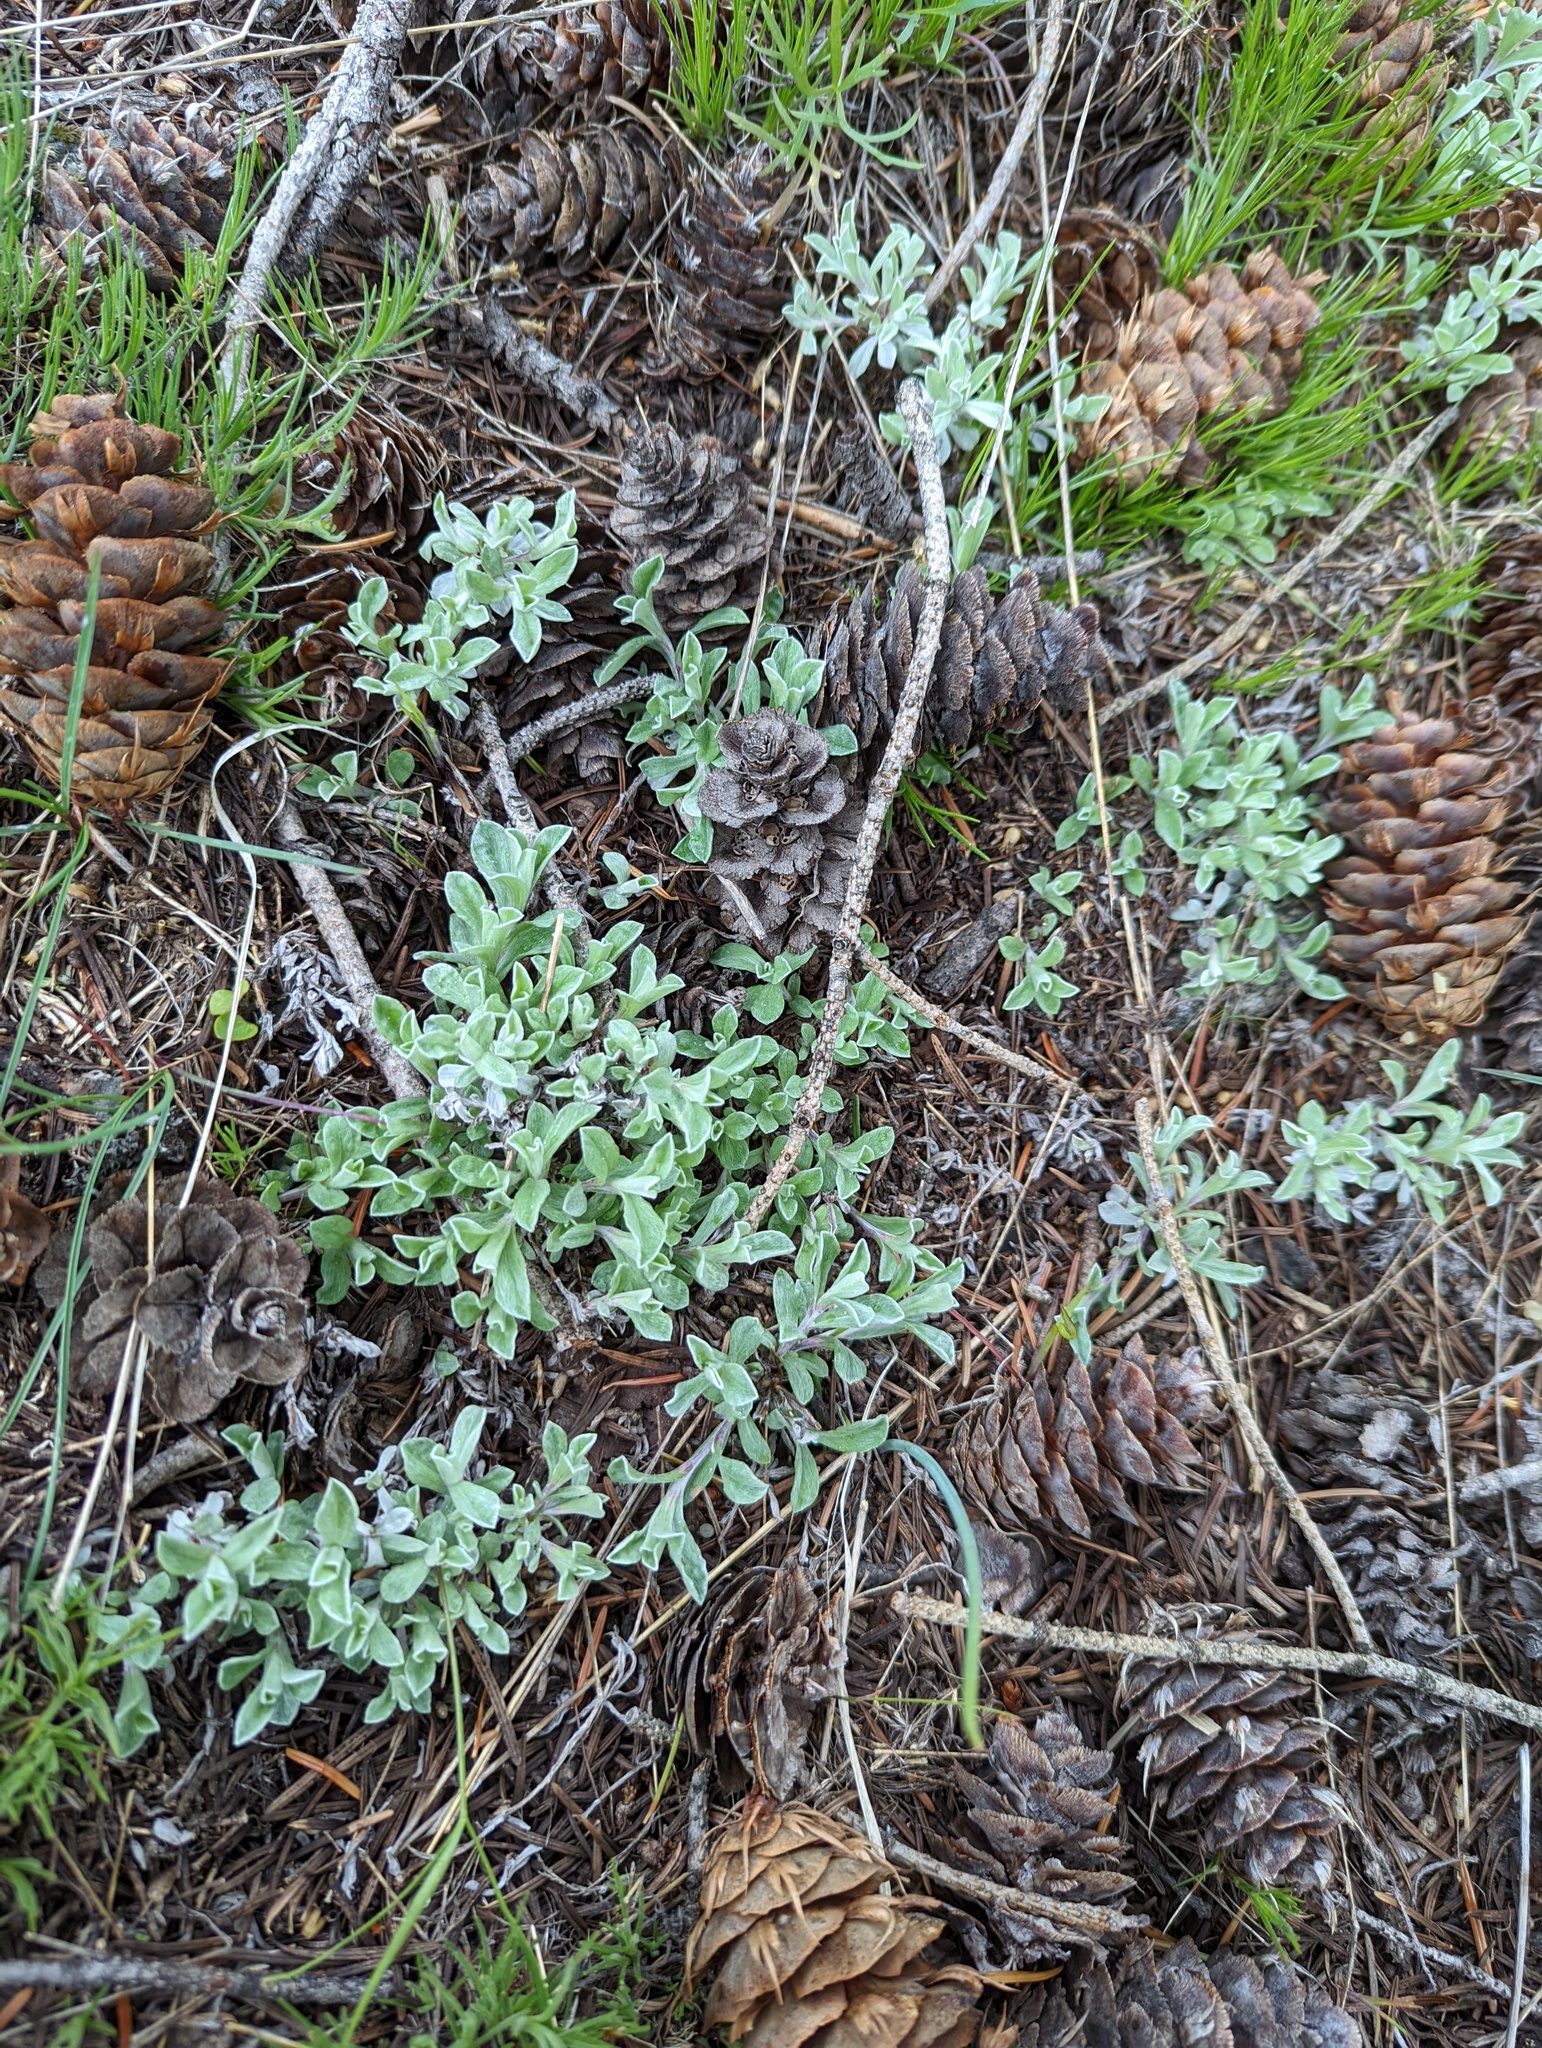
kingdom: Plantae
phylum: Tracheophyta
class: Magnoliopsida
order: Asterales
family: Asteraceae
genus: Antennaria
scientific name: Antennaria umbrinella
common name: Brown pussytoes
